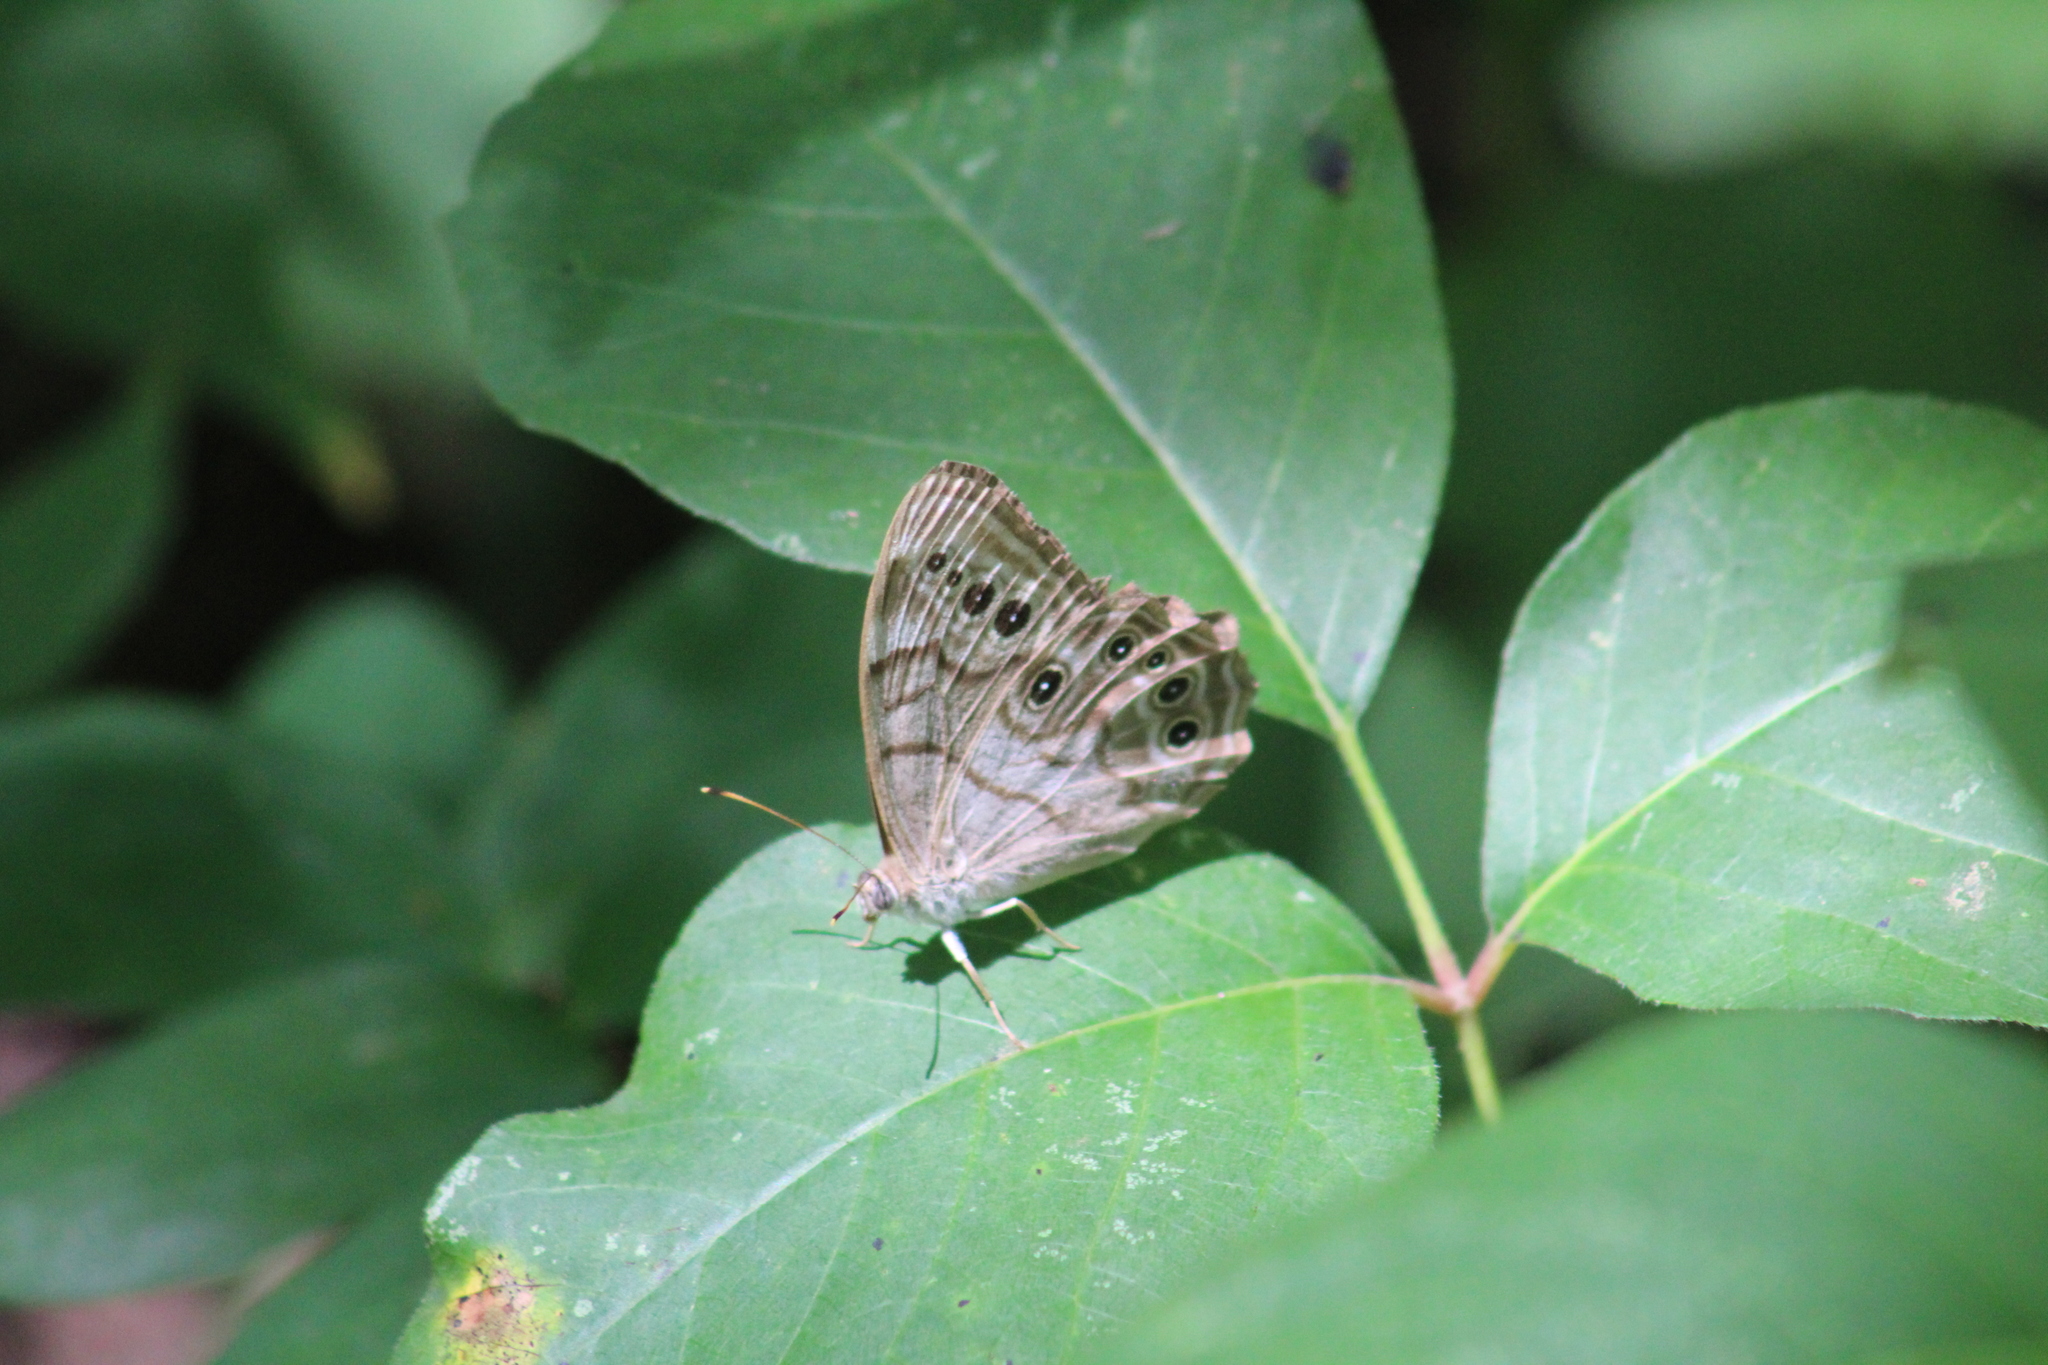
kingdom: Animalia
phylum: Arthropoda
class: Insecta
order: Lepidoptera
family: Nymphalidae
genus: Lethe
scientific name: Lethe anthedon
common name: Northern pearly-eye
